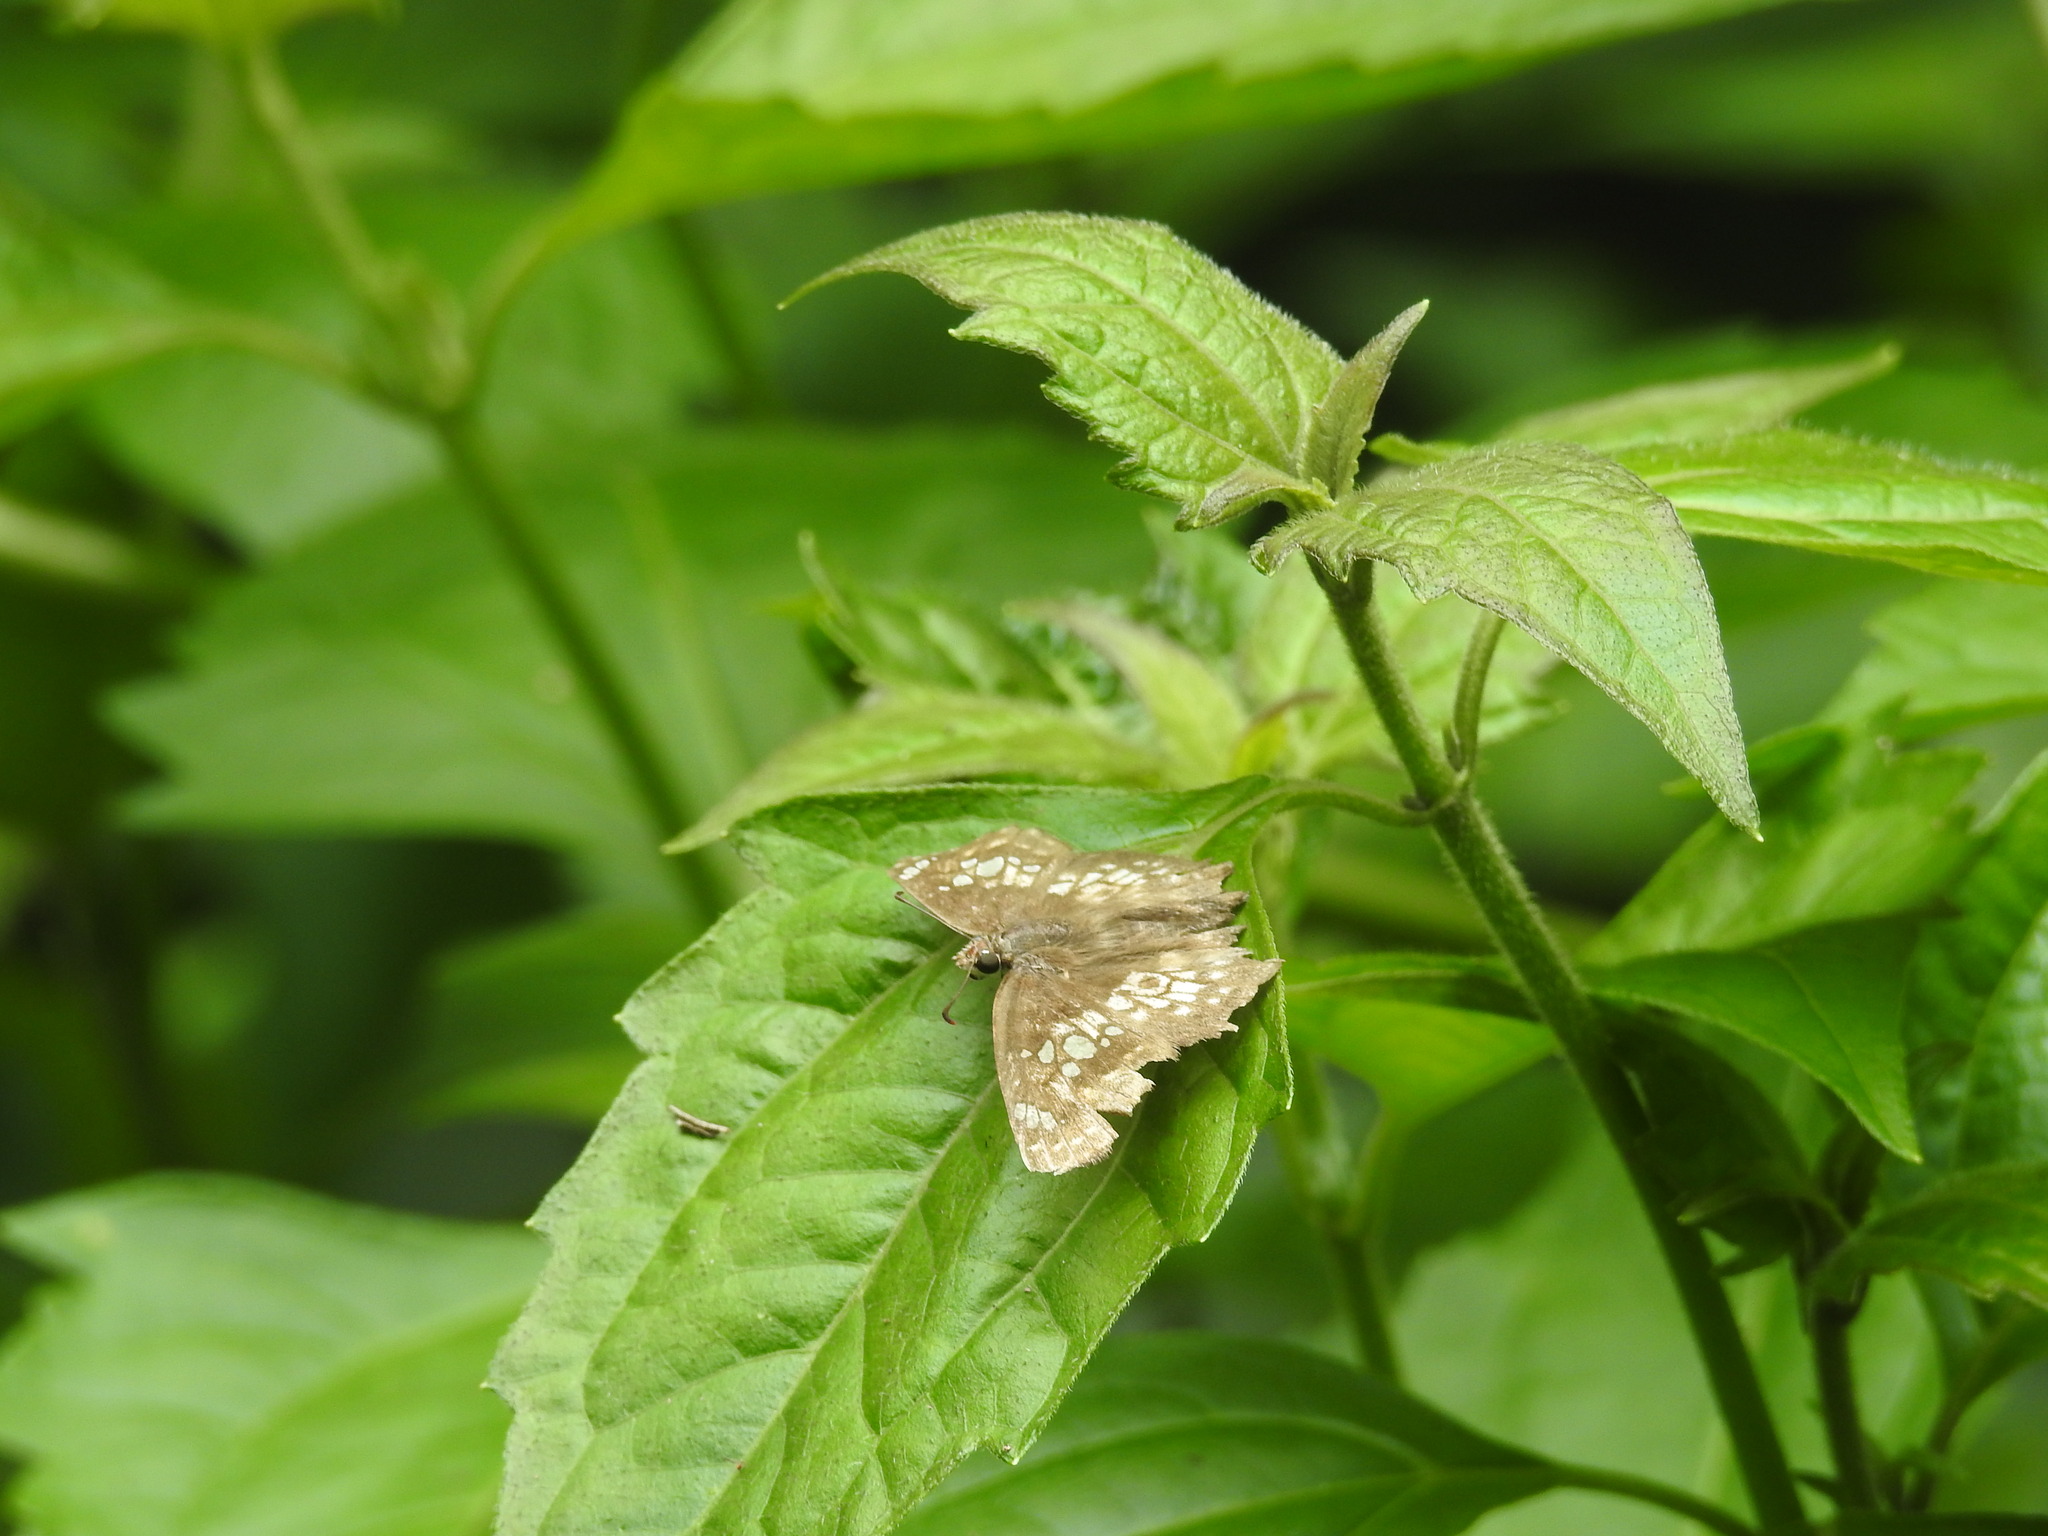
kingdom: Animalia
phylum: Arthropoda
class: Insecta
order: Lepidoptera
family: Hesperiidae
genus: Caprona
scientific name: Caprona ransonnettii
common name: Golden angle
